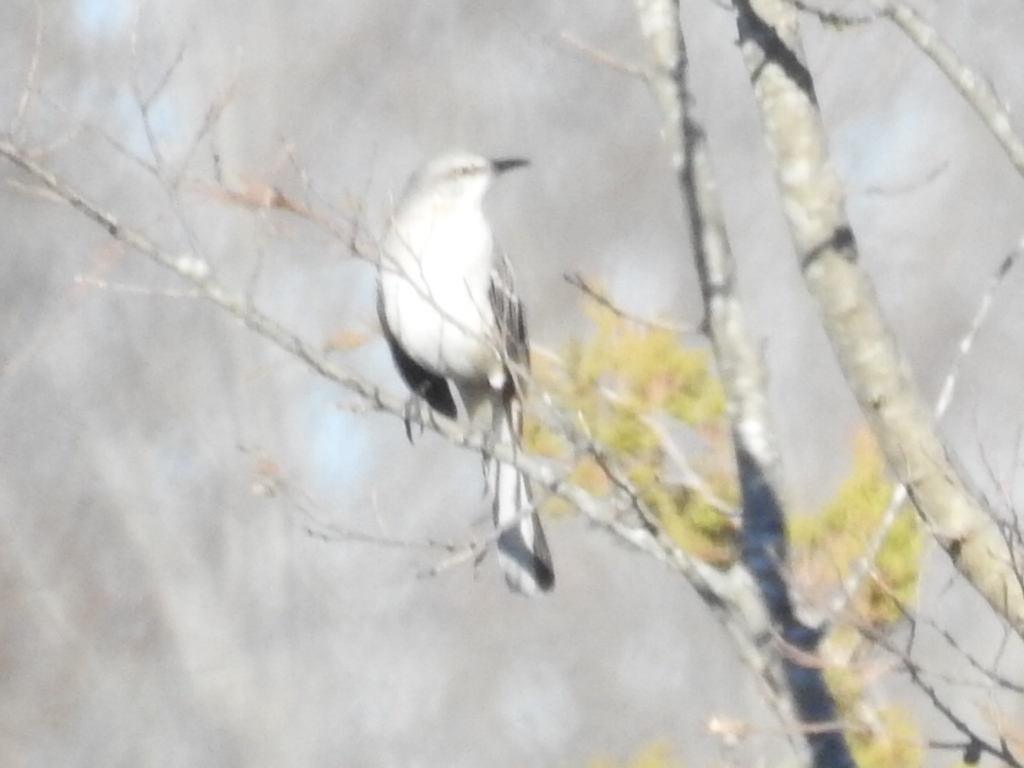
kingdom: Animalia
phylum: Chordata
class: Aves
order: Passeriformes
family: Mimidae
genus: Mimus
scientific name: Mimus polyglottos
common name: Northern mockingbird
